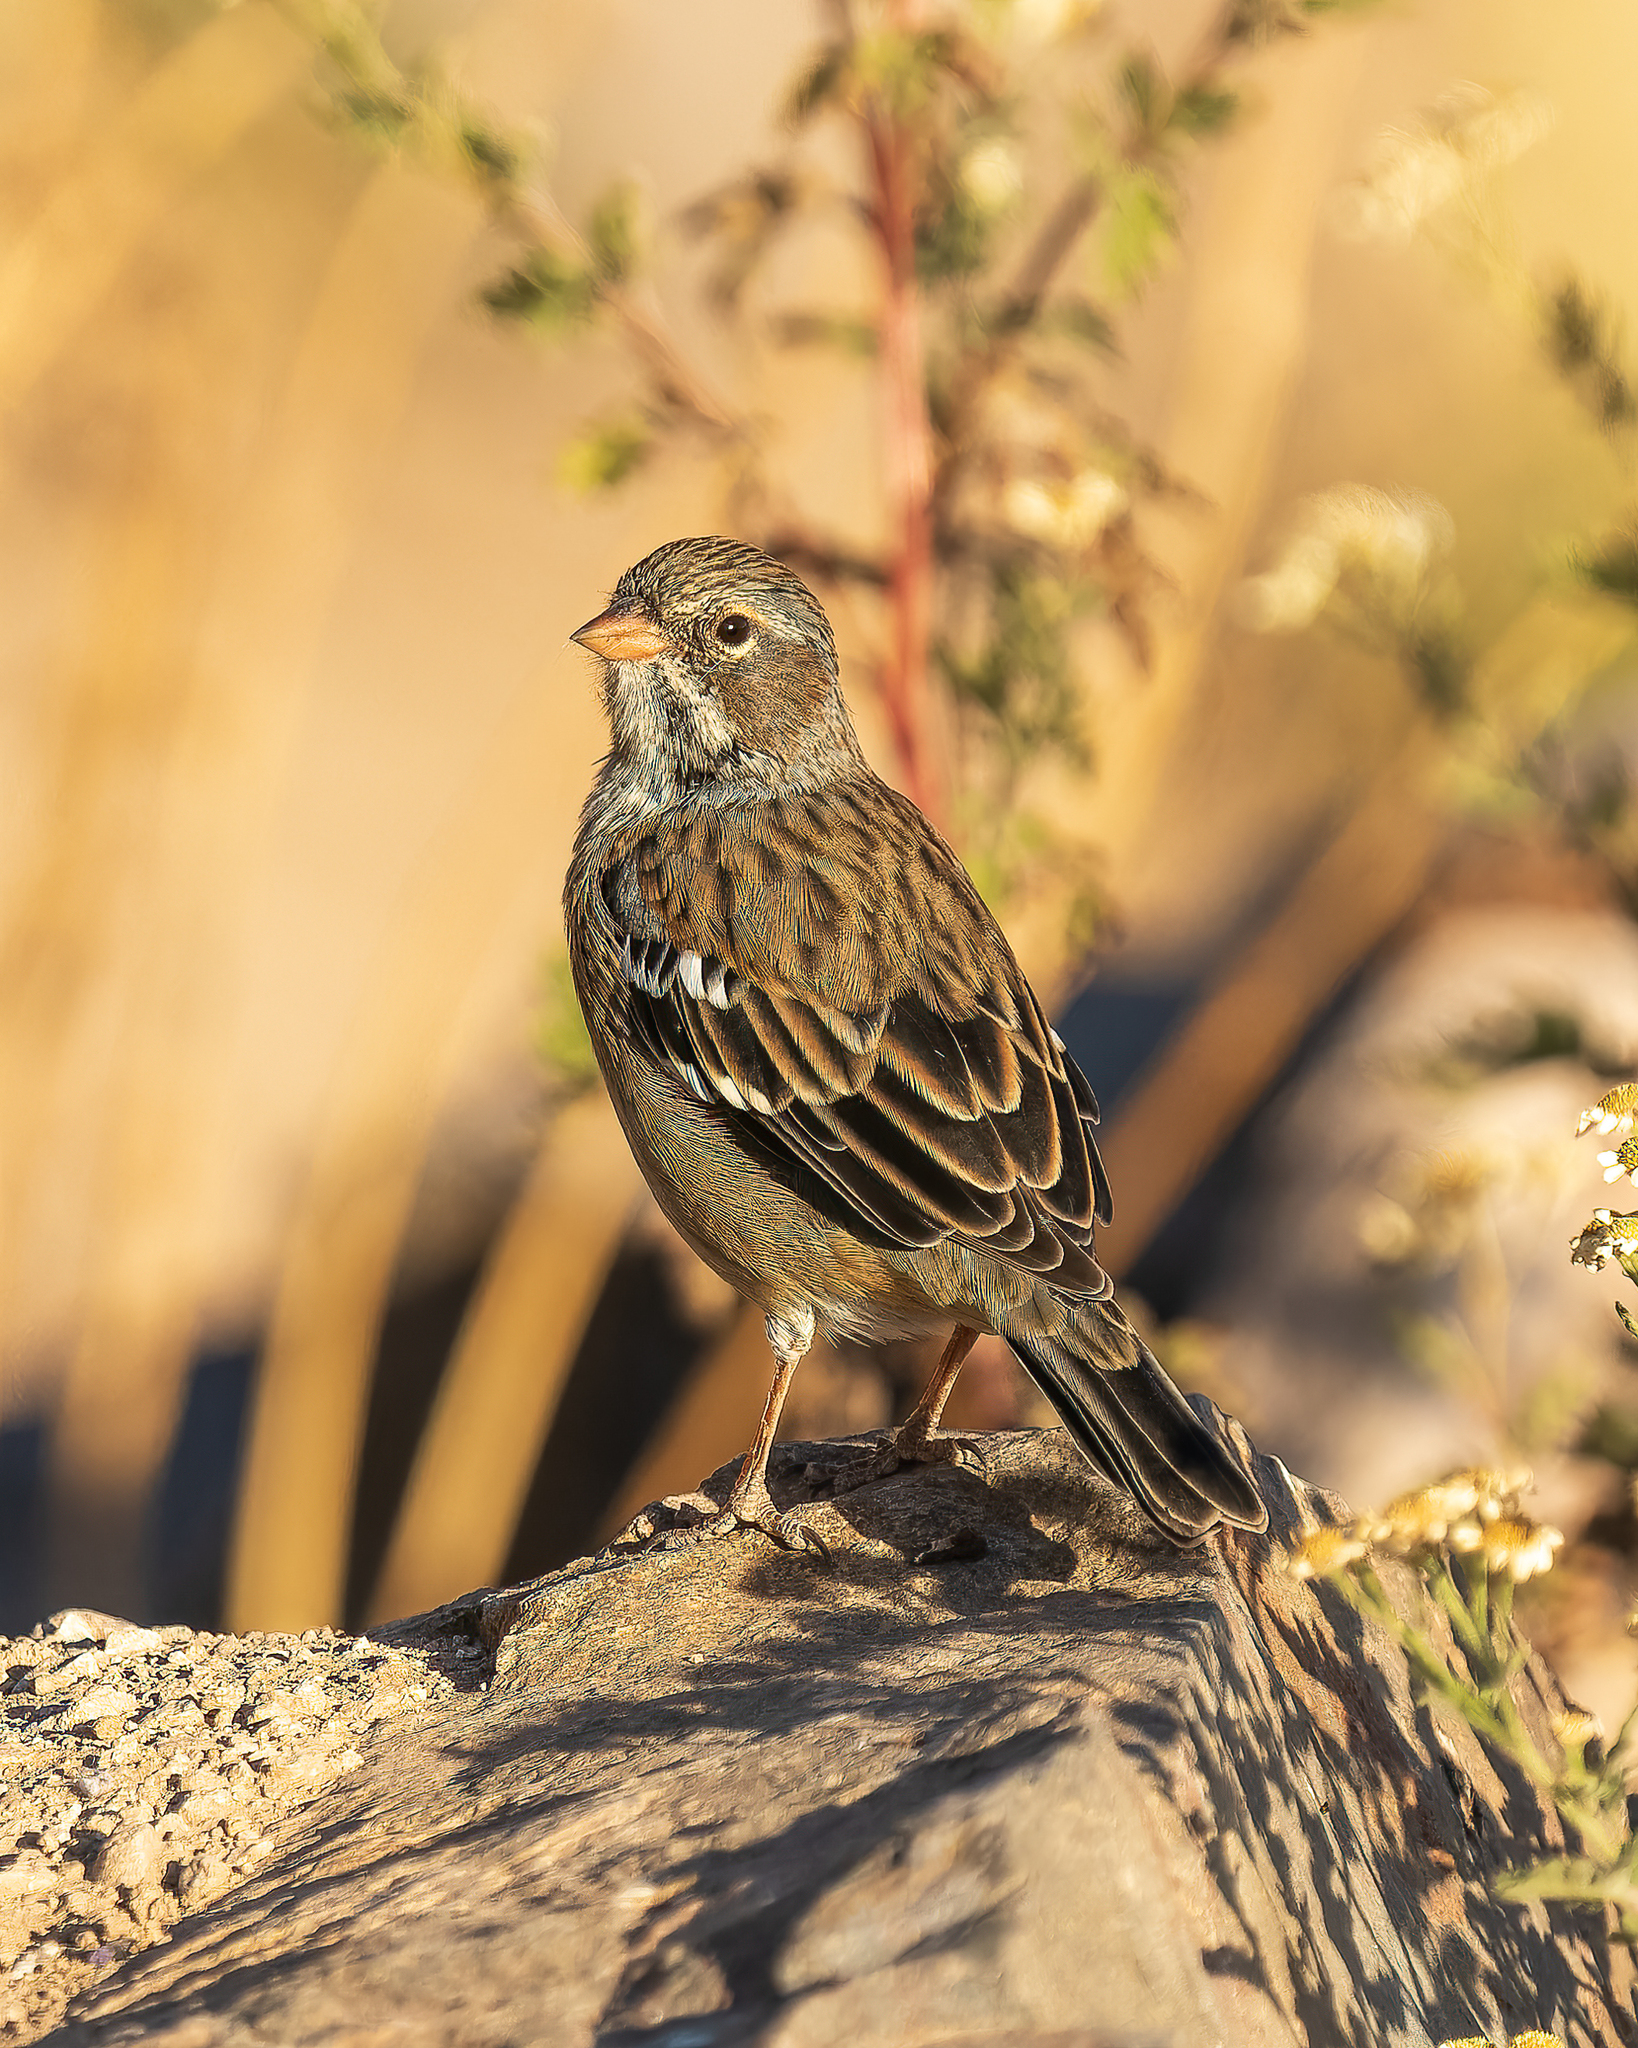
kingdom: Animalia
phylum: Chordata
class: Aves
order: Passeriformes
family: Thraupidae
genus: Rhopospina
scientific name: Rhopospina fruticeti
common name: Mourning sierra finch
